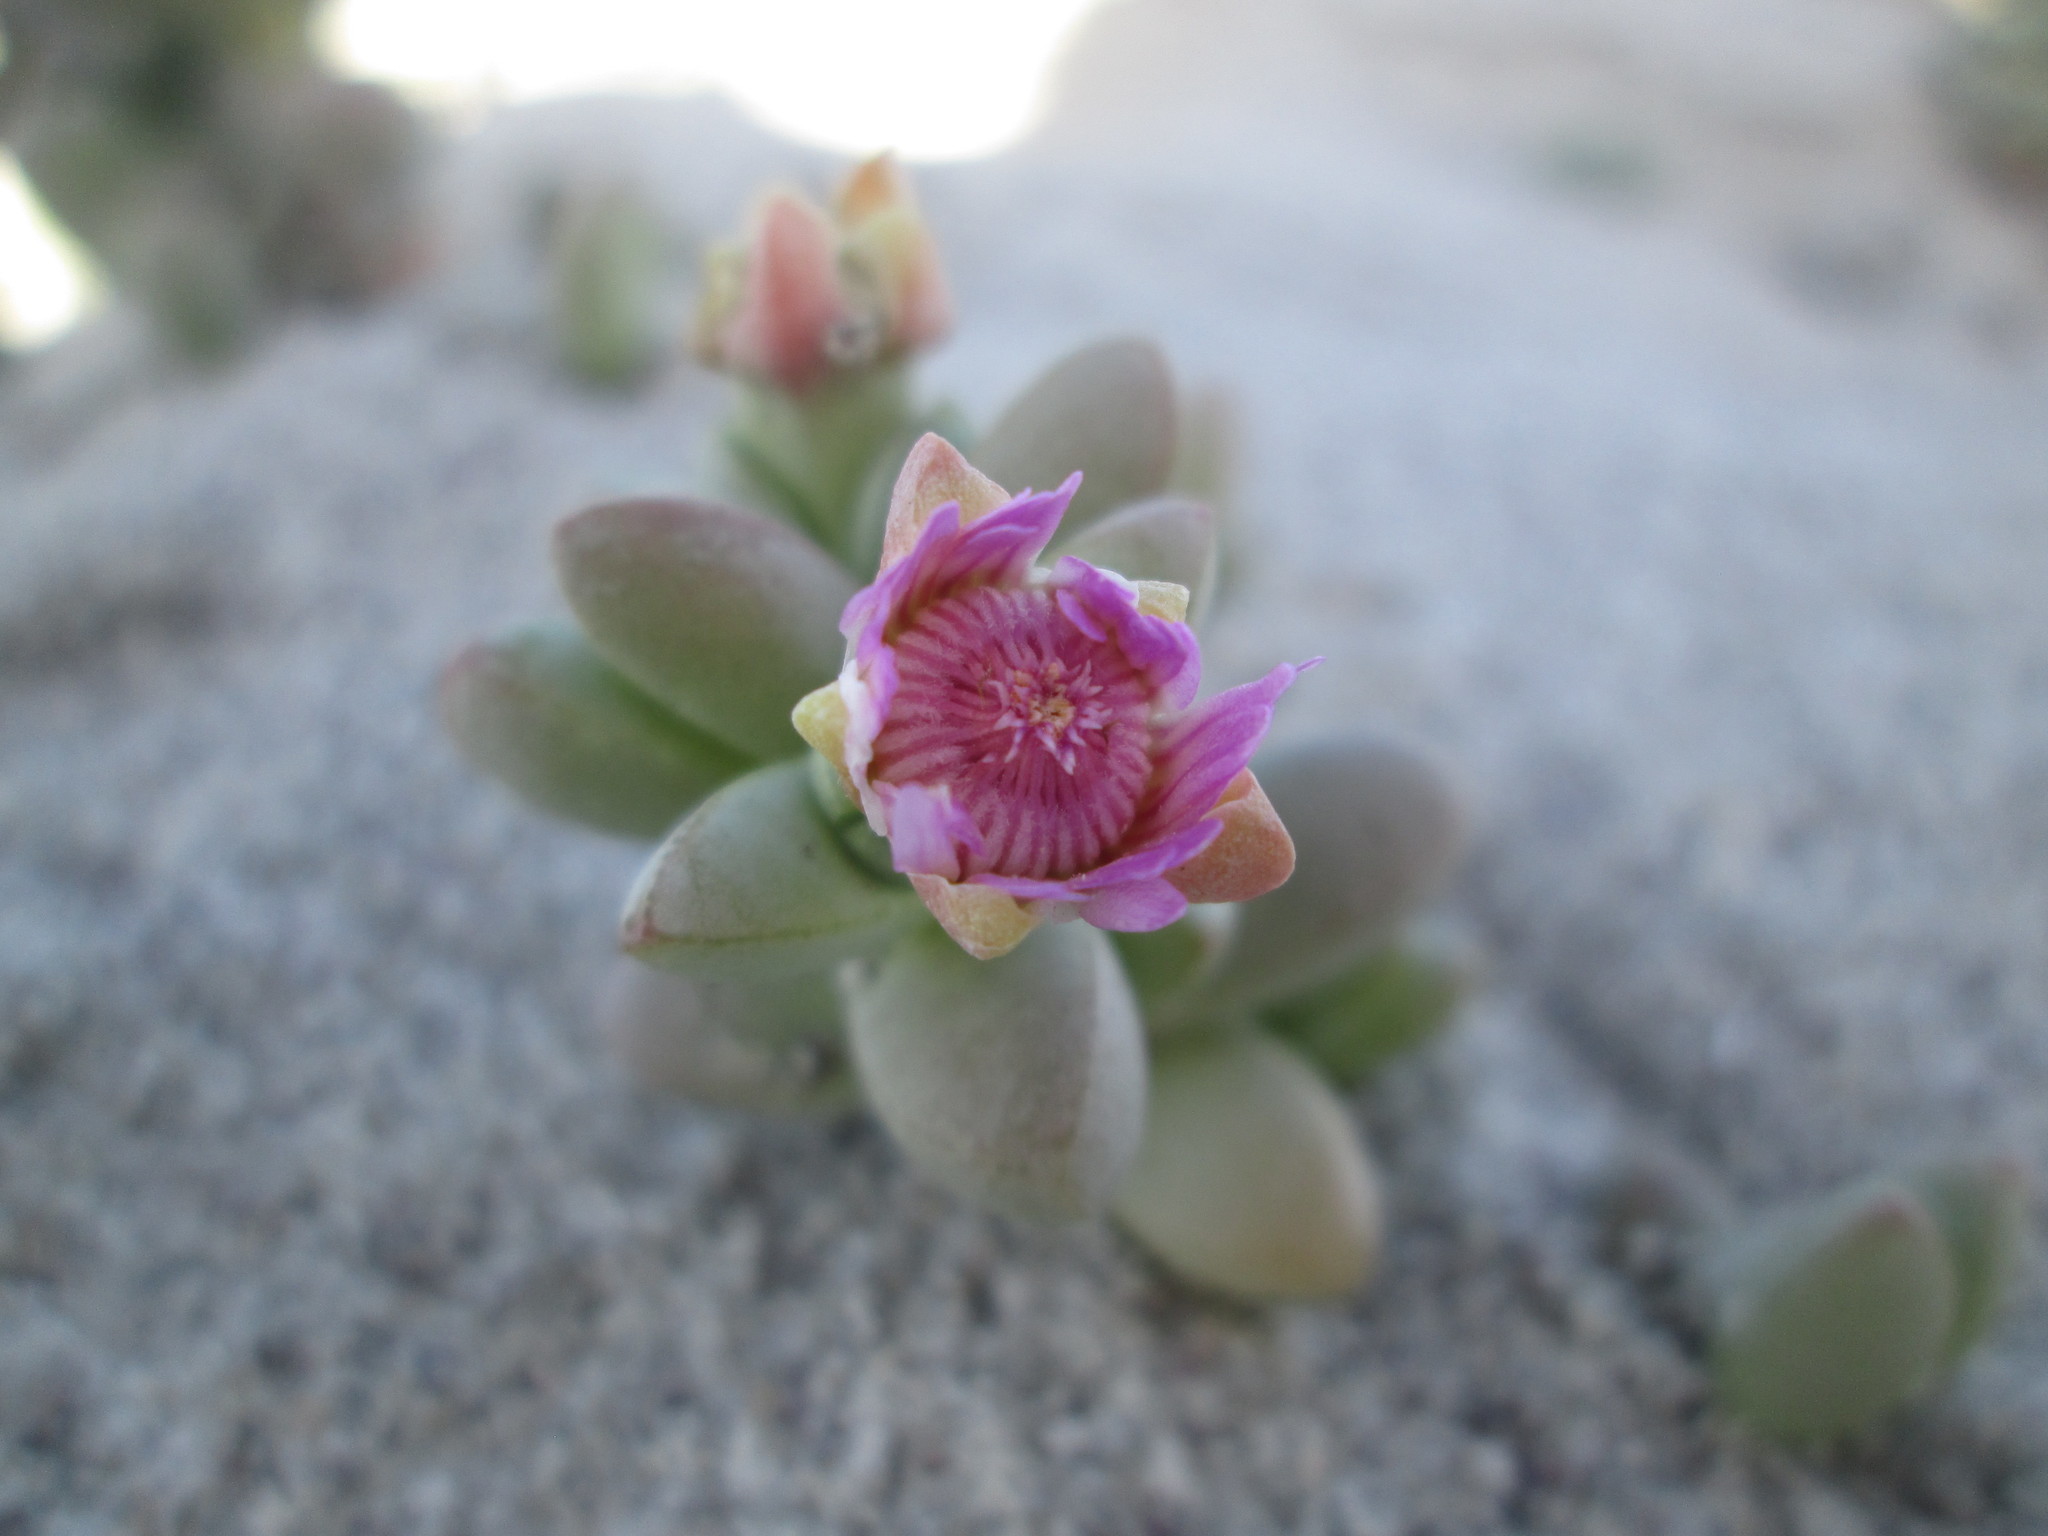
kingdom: Plantae
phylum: Tracheophyta
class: Magnoliopsida
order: Caryophyllales
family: Aizoaceae
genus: Amphibolia
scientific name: Amphibolia laevis
